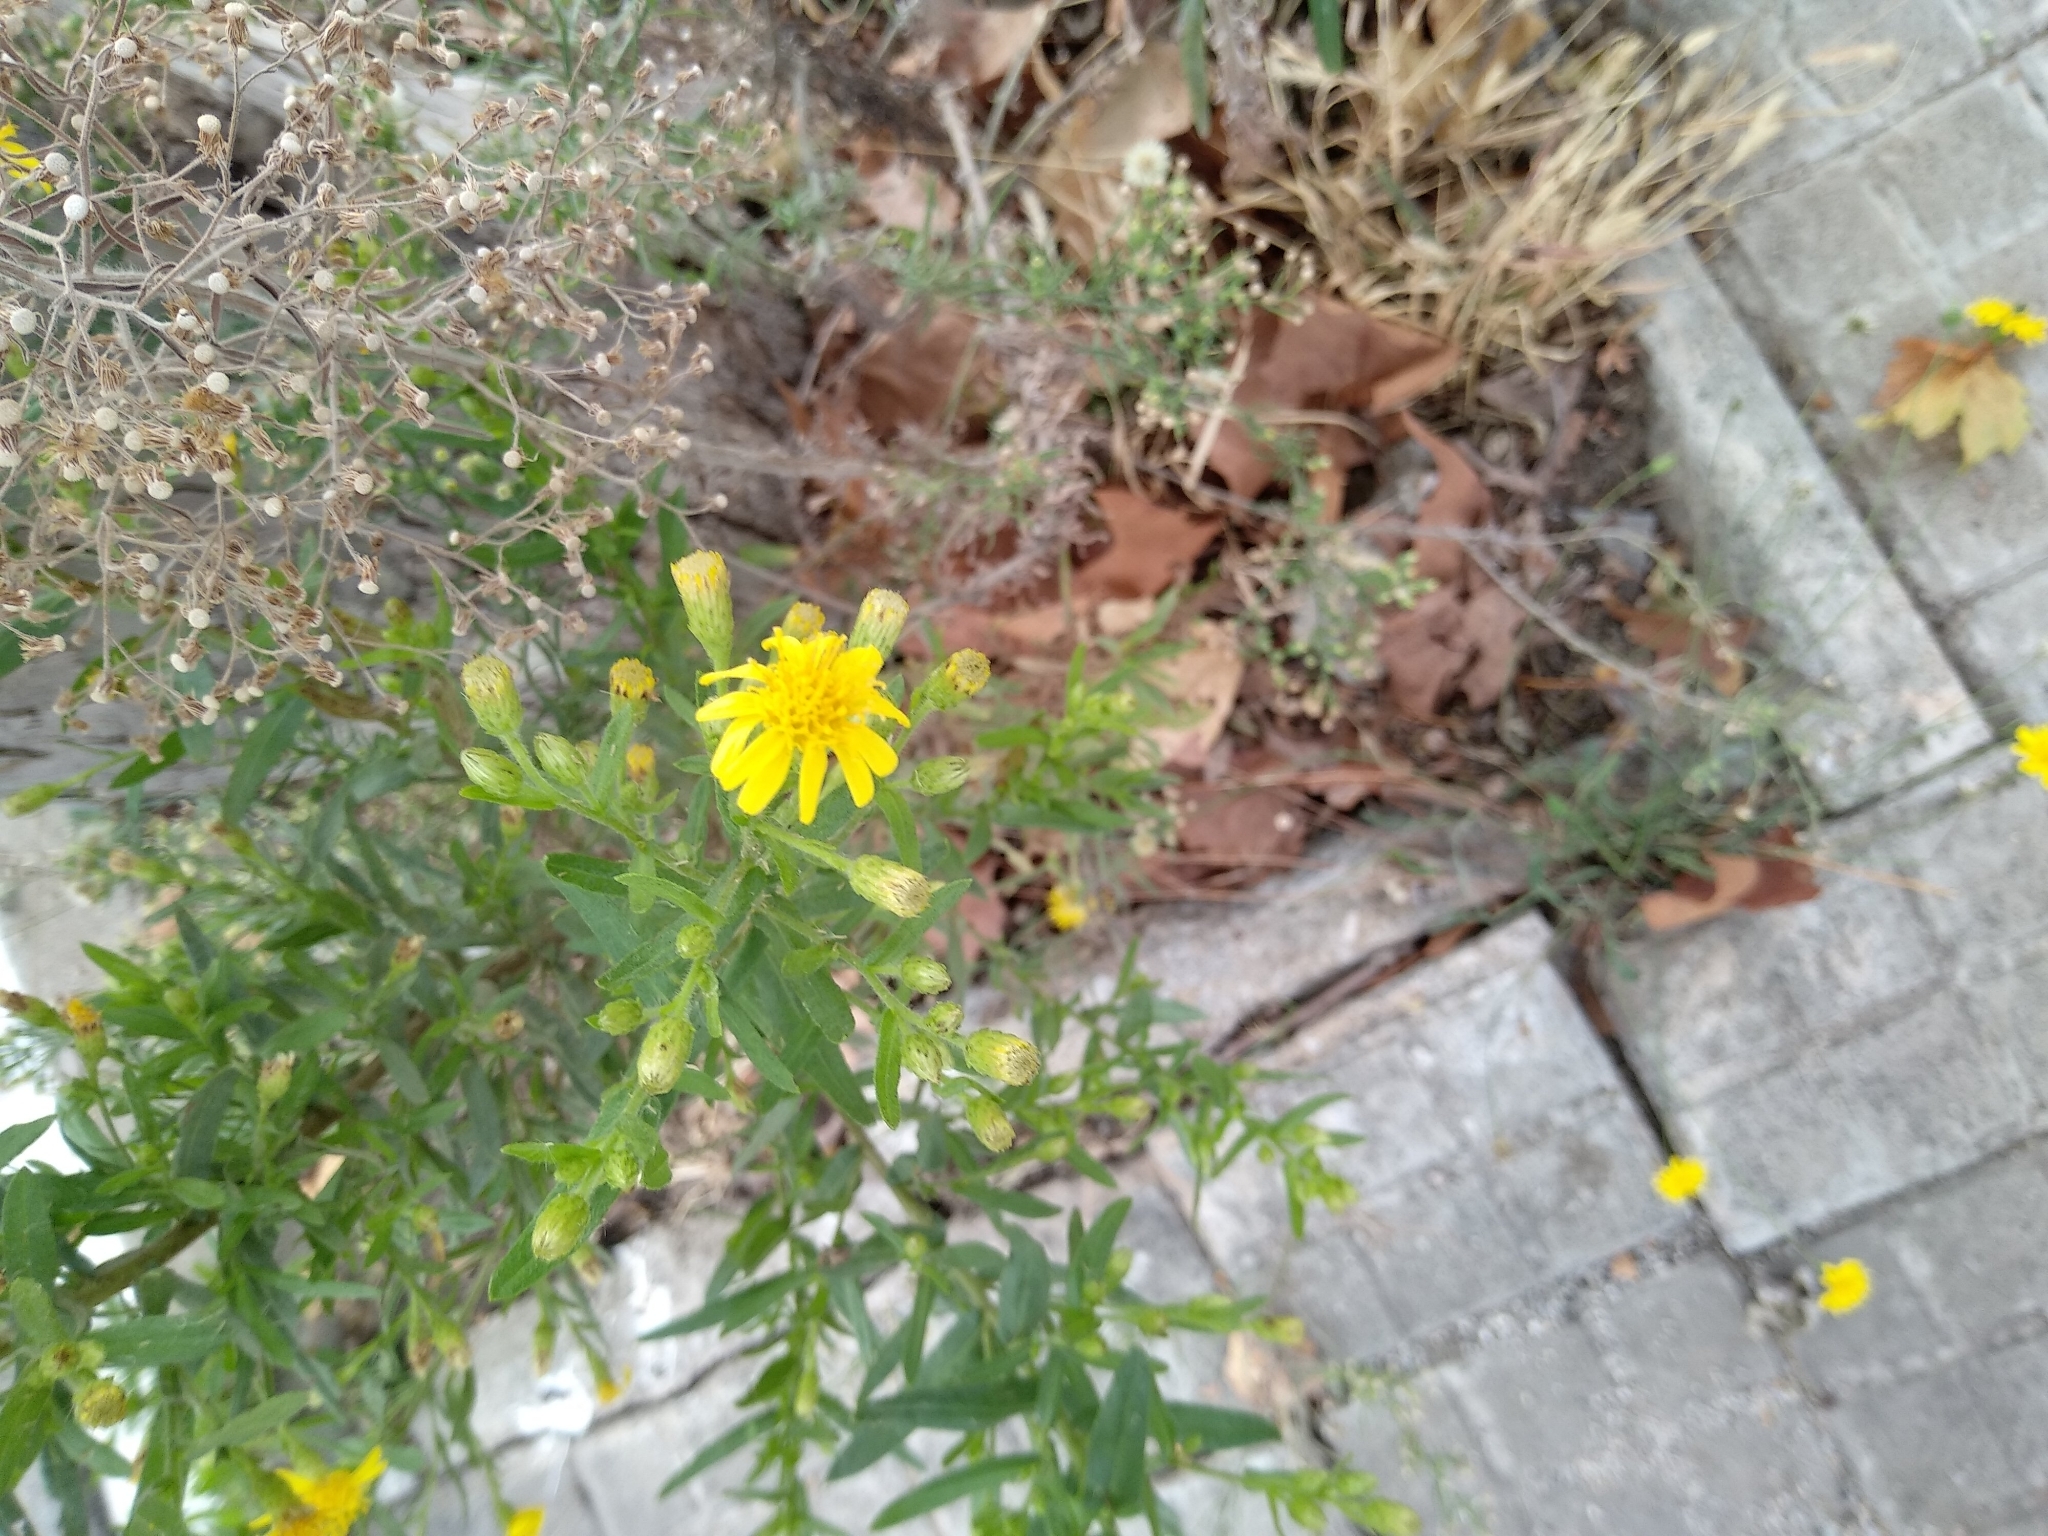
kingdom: Plantae
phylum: Tracheophyta
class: Magnoliopsida
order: Asterales
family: Asteraceae
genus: Dittrichia
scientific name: Dittrichia viscosa
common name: Woody fleabane
